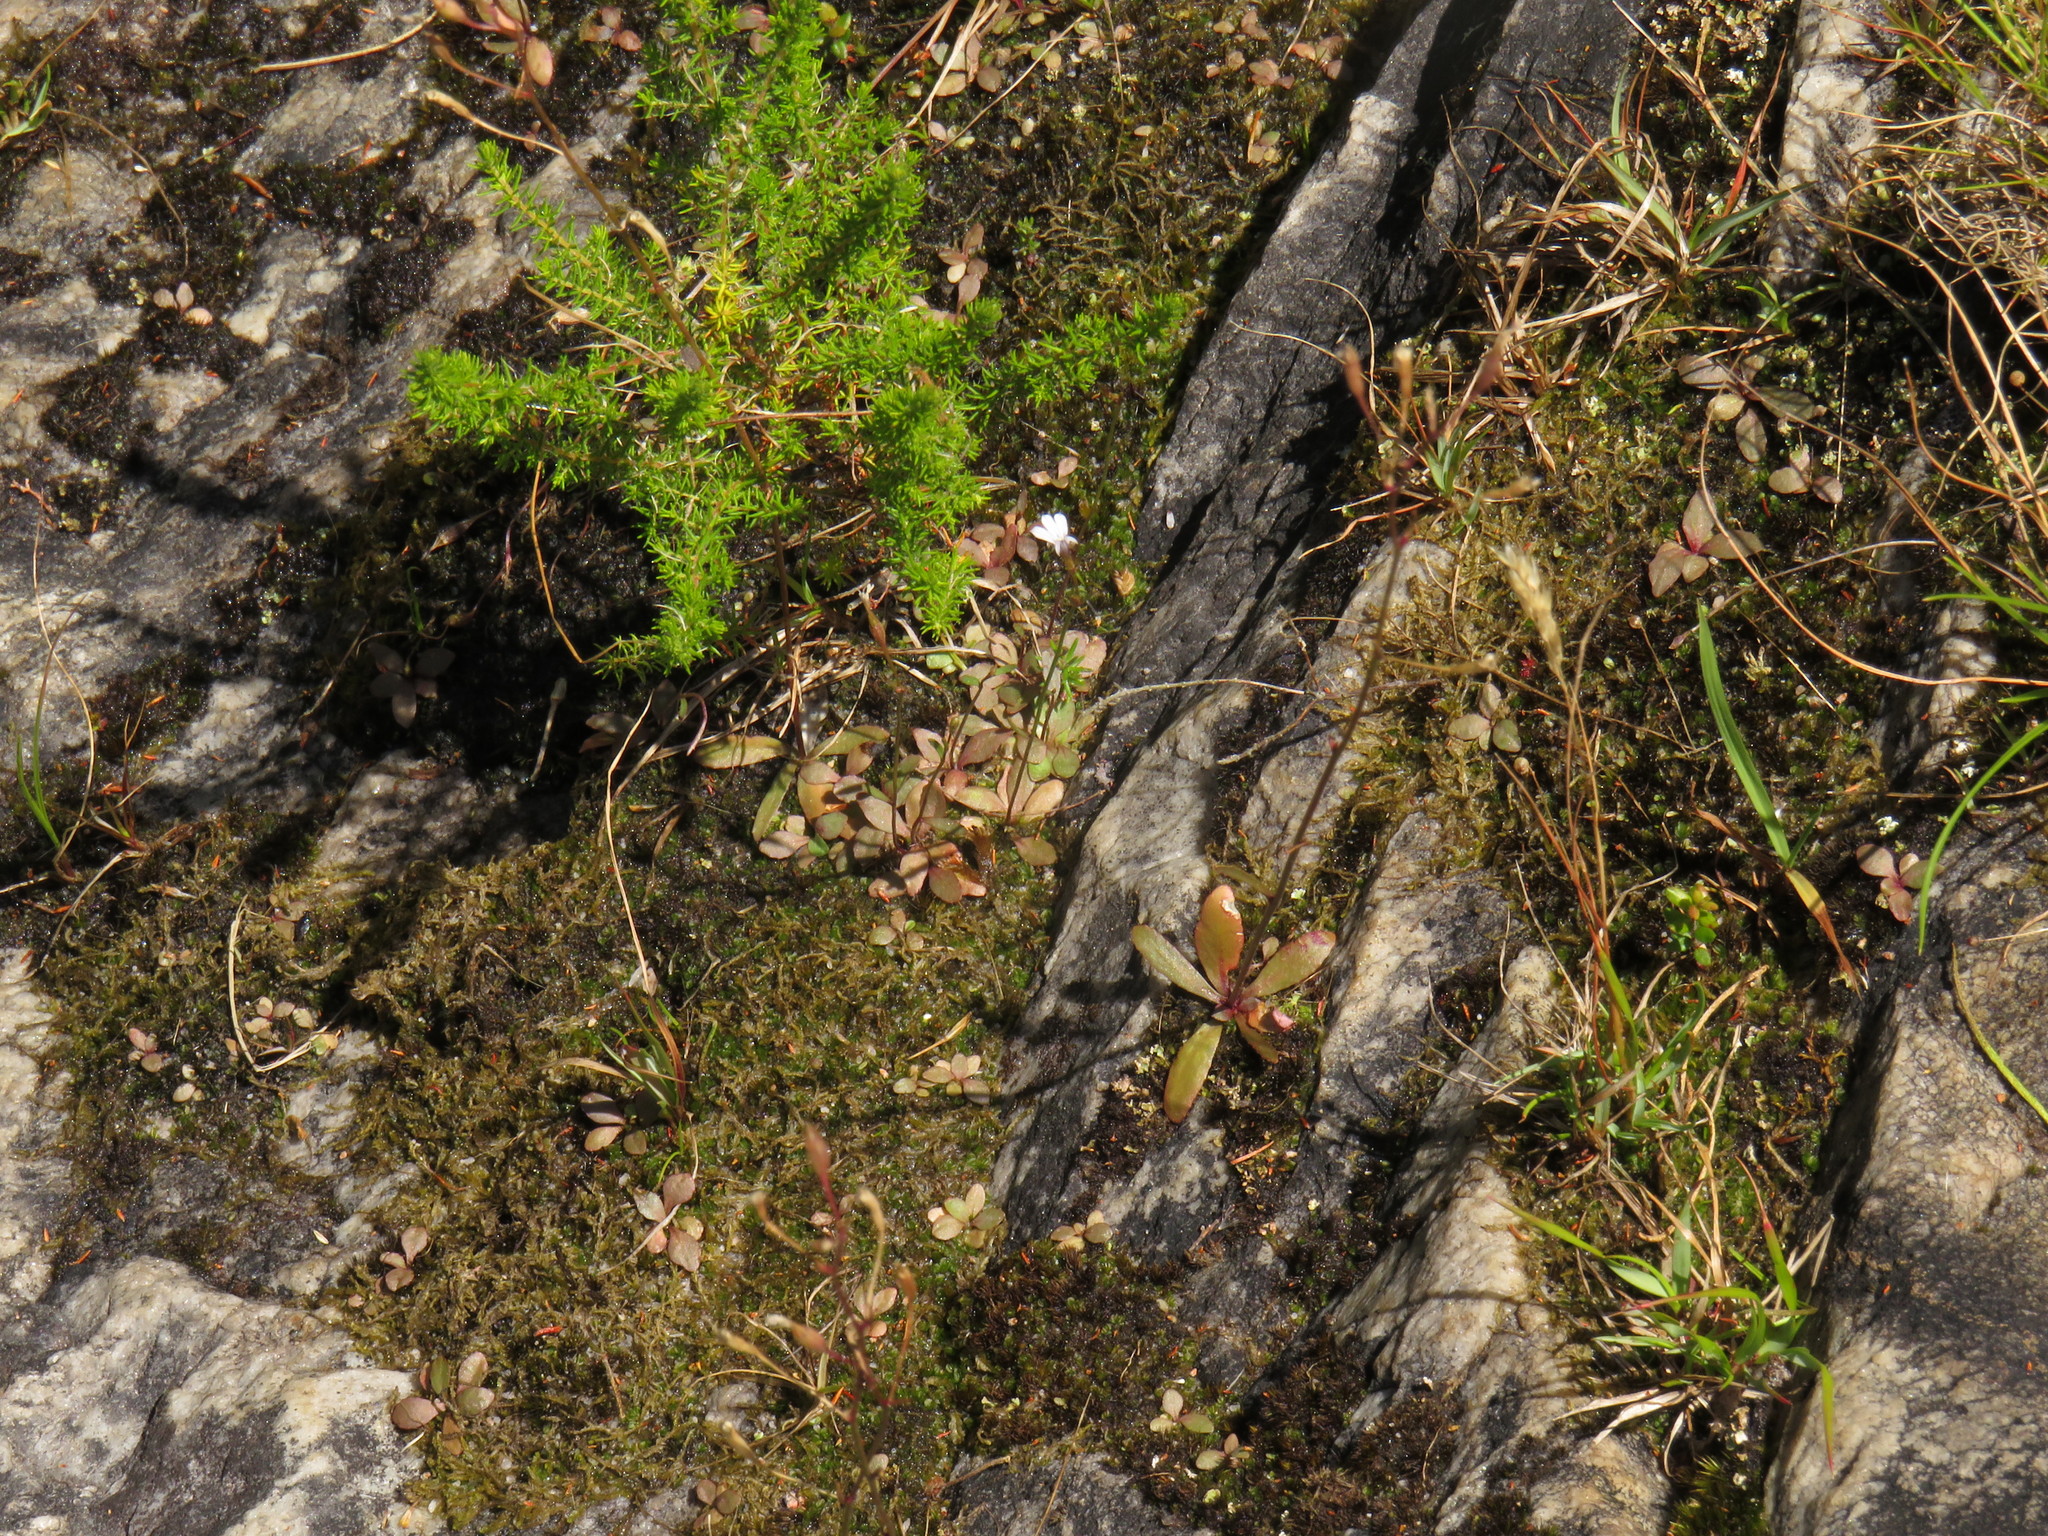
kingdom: Plantae
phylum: Tracheophyta
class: Magnoliopsida
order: Asterales
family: Campanulaceae
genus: Wimmerella
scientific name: Wimmerella arabidea
